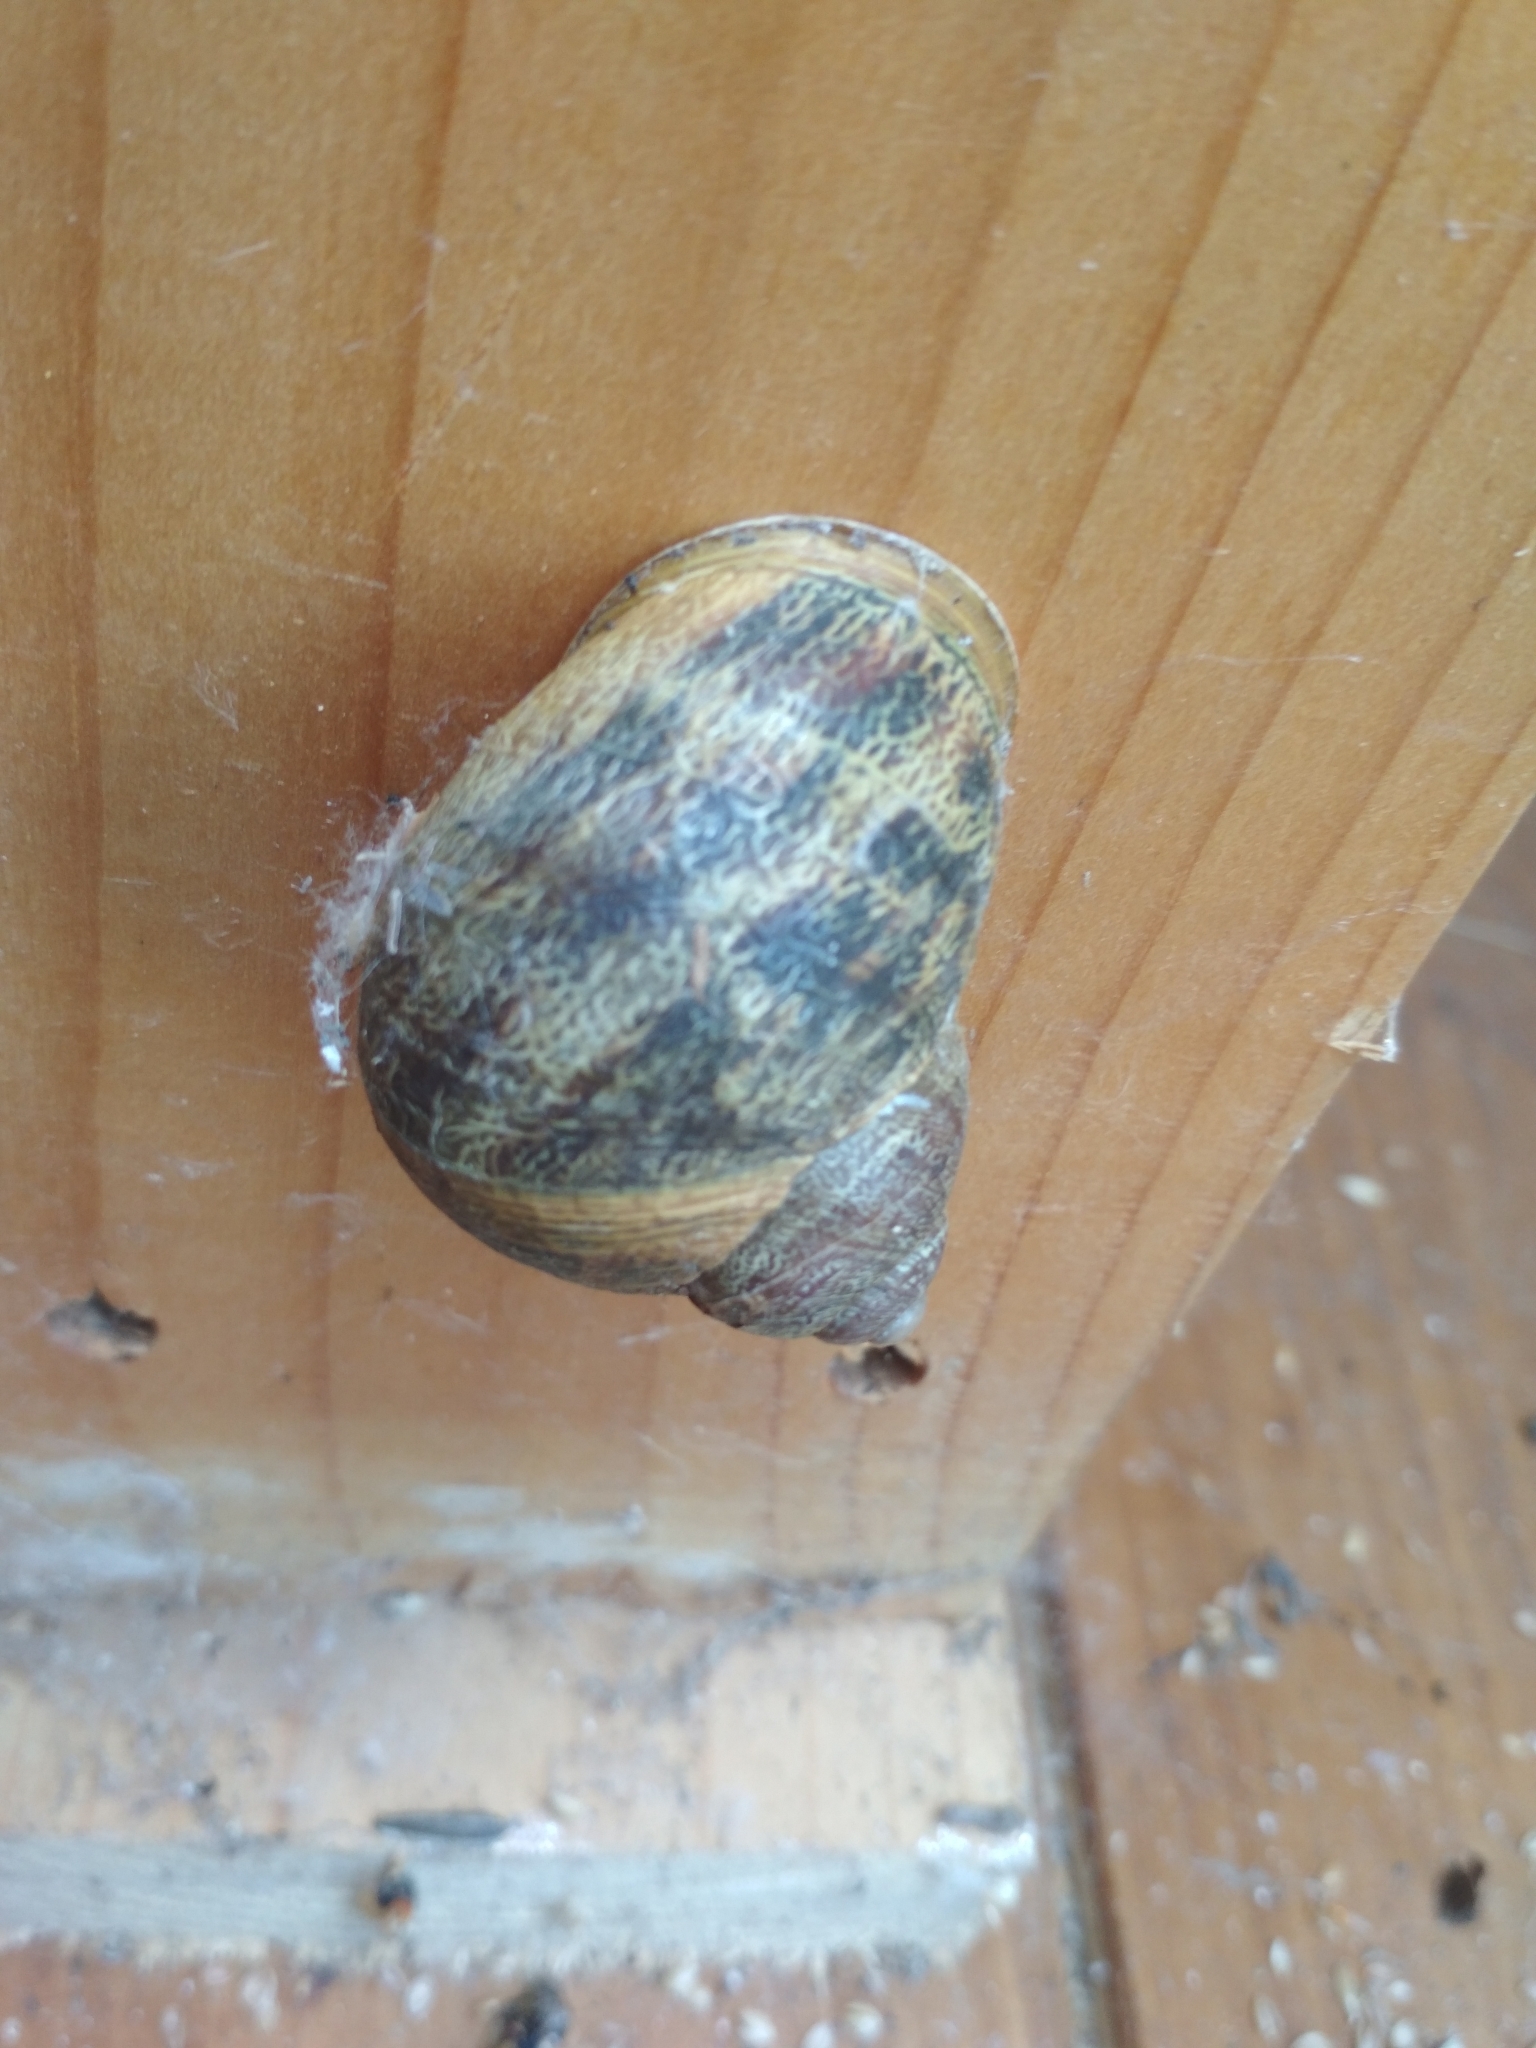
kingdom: Animalia
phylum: Mollusca
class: Gastropoda
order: Stylommatophora
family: Helicidae
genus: Cornu
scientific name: Cornu aspersum
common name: Brown garden snail
